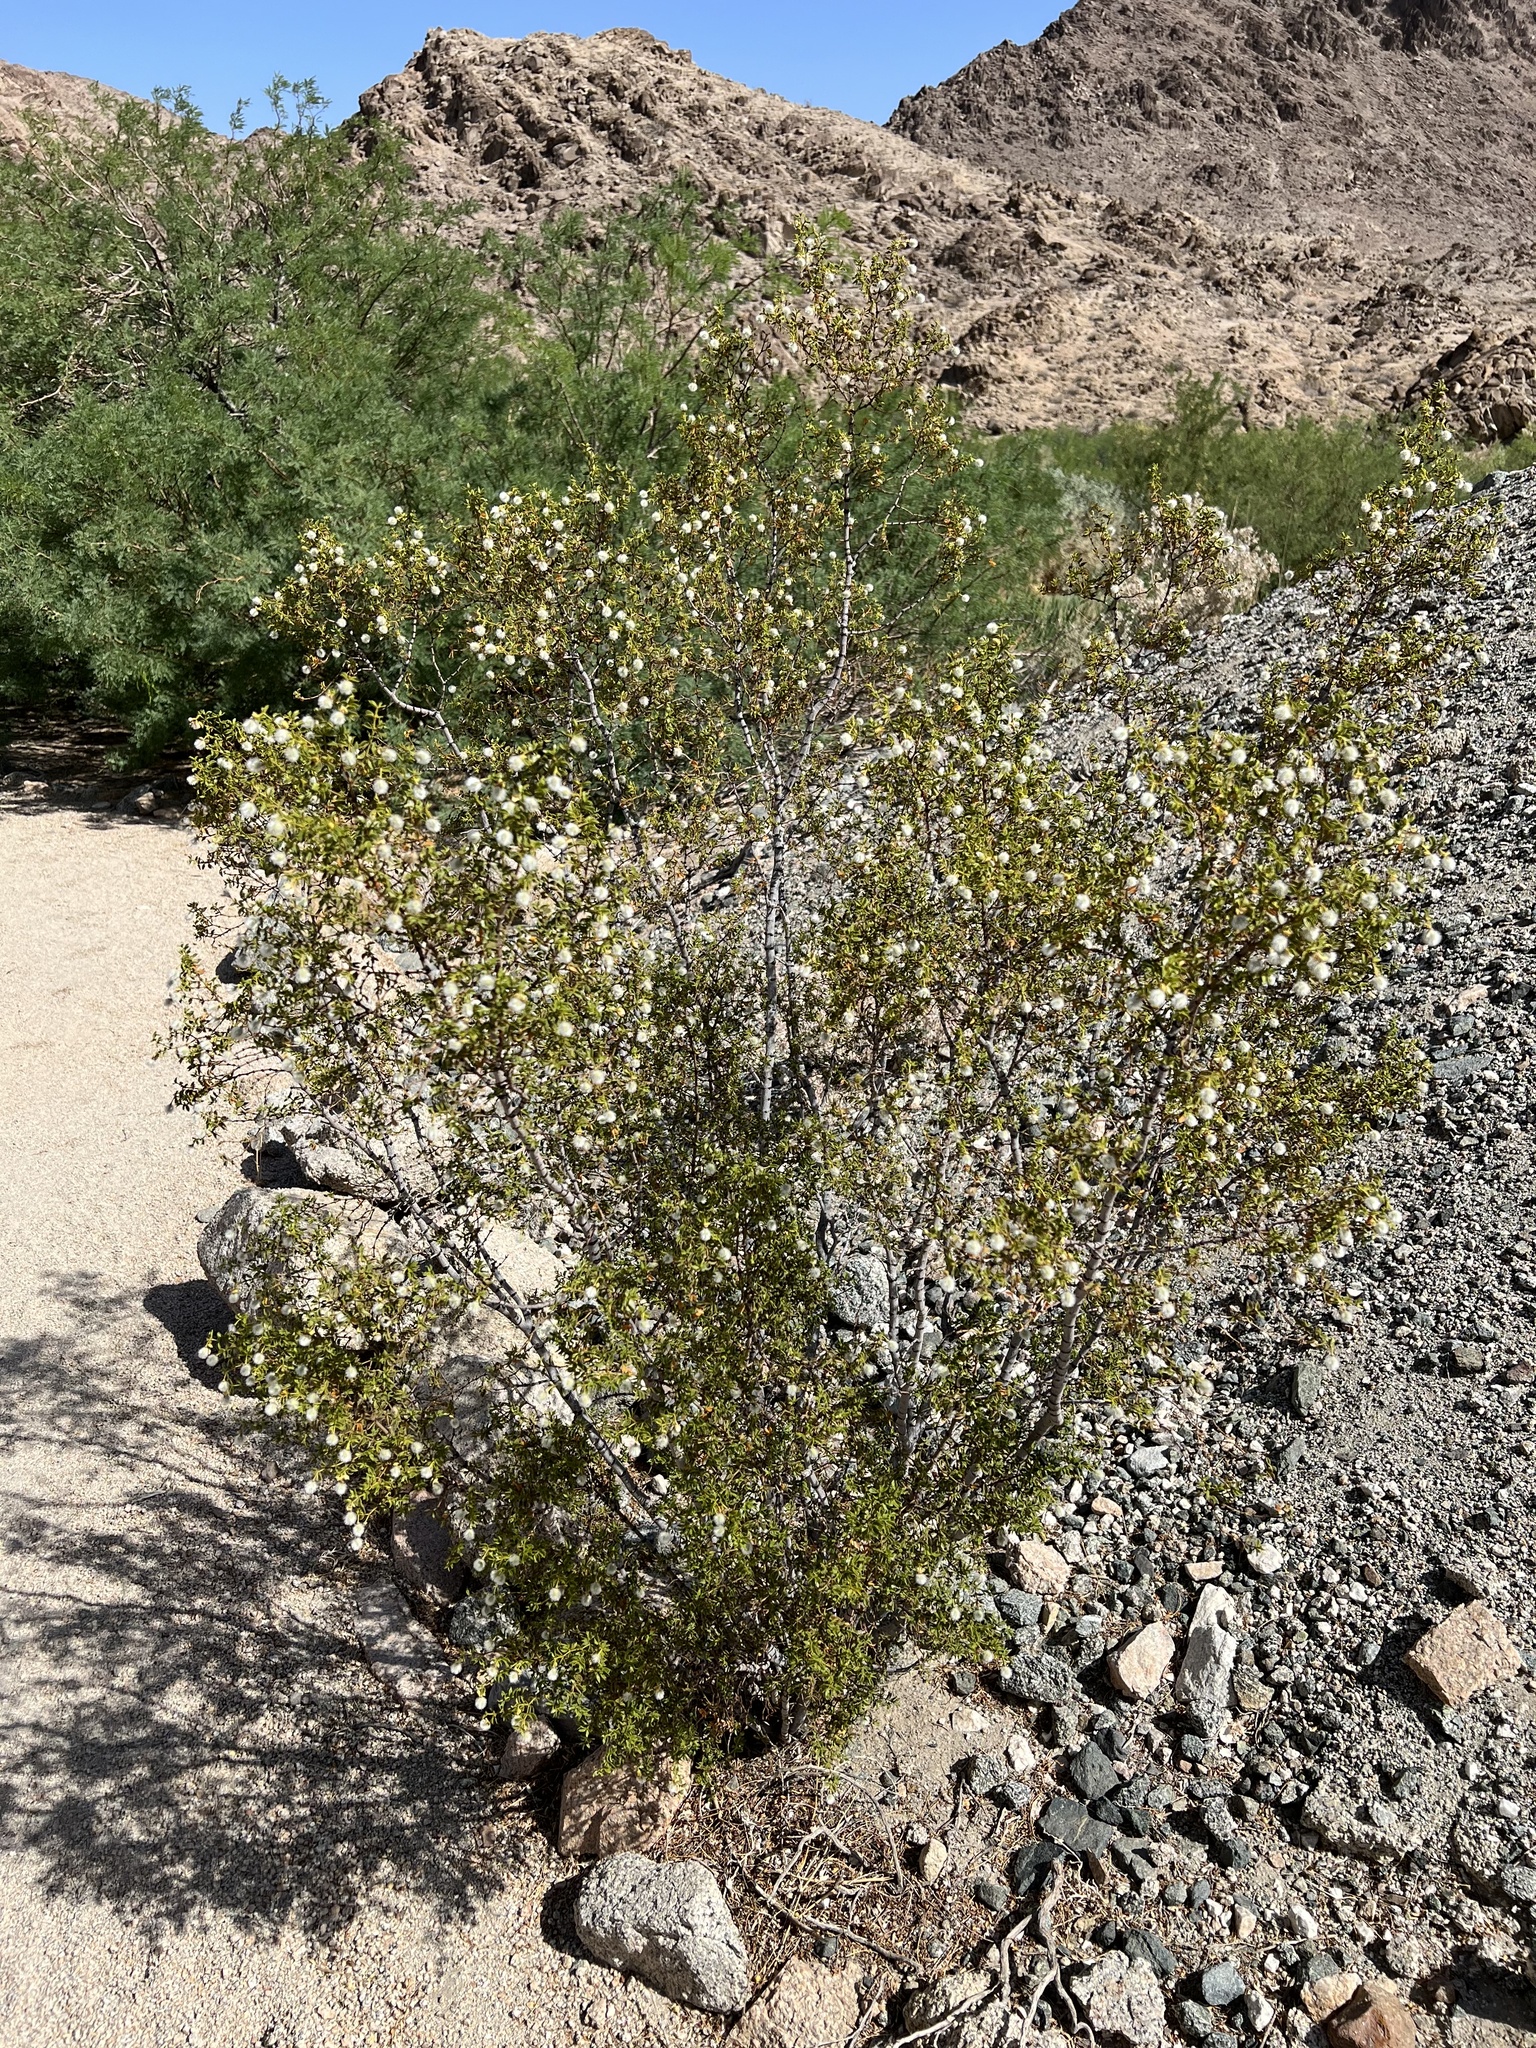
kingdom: Plantae
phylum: Tracheophyta
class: Magnoliopsida
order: Zygophyllales
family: Zygophyllaceae
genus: Larrea
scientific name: Larrea tridentata
